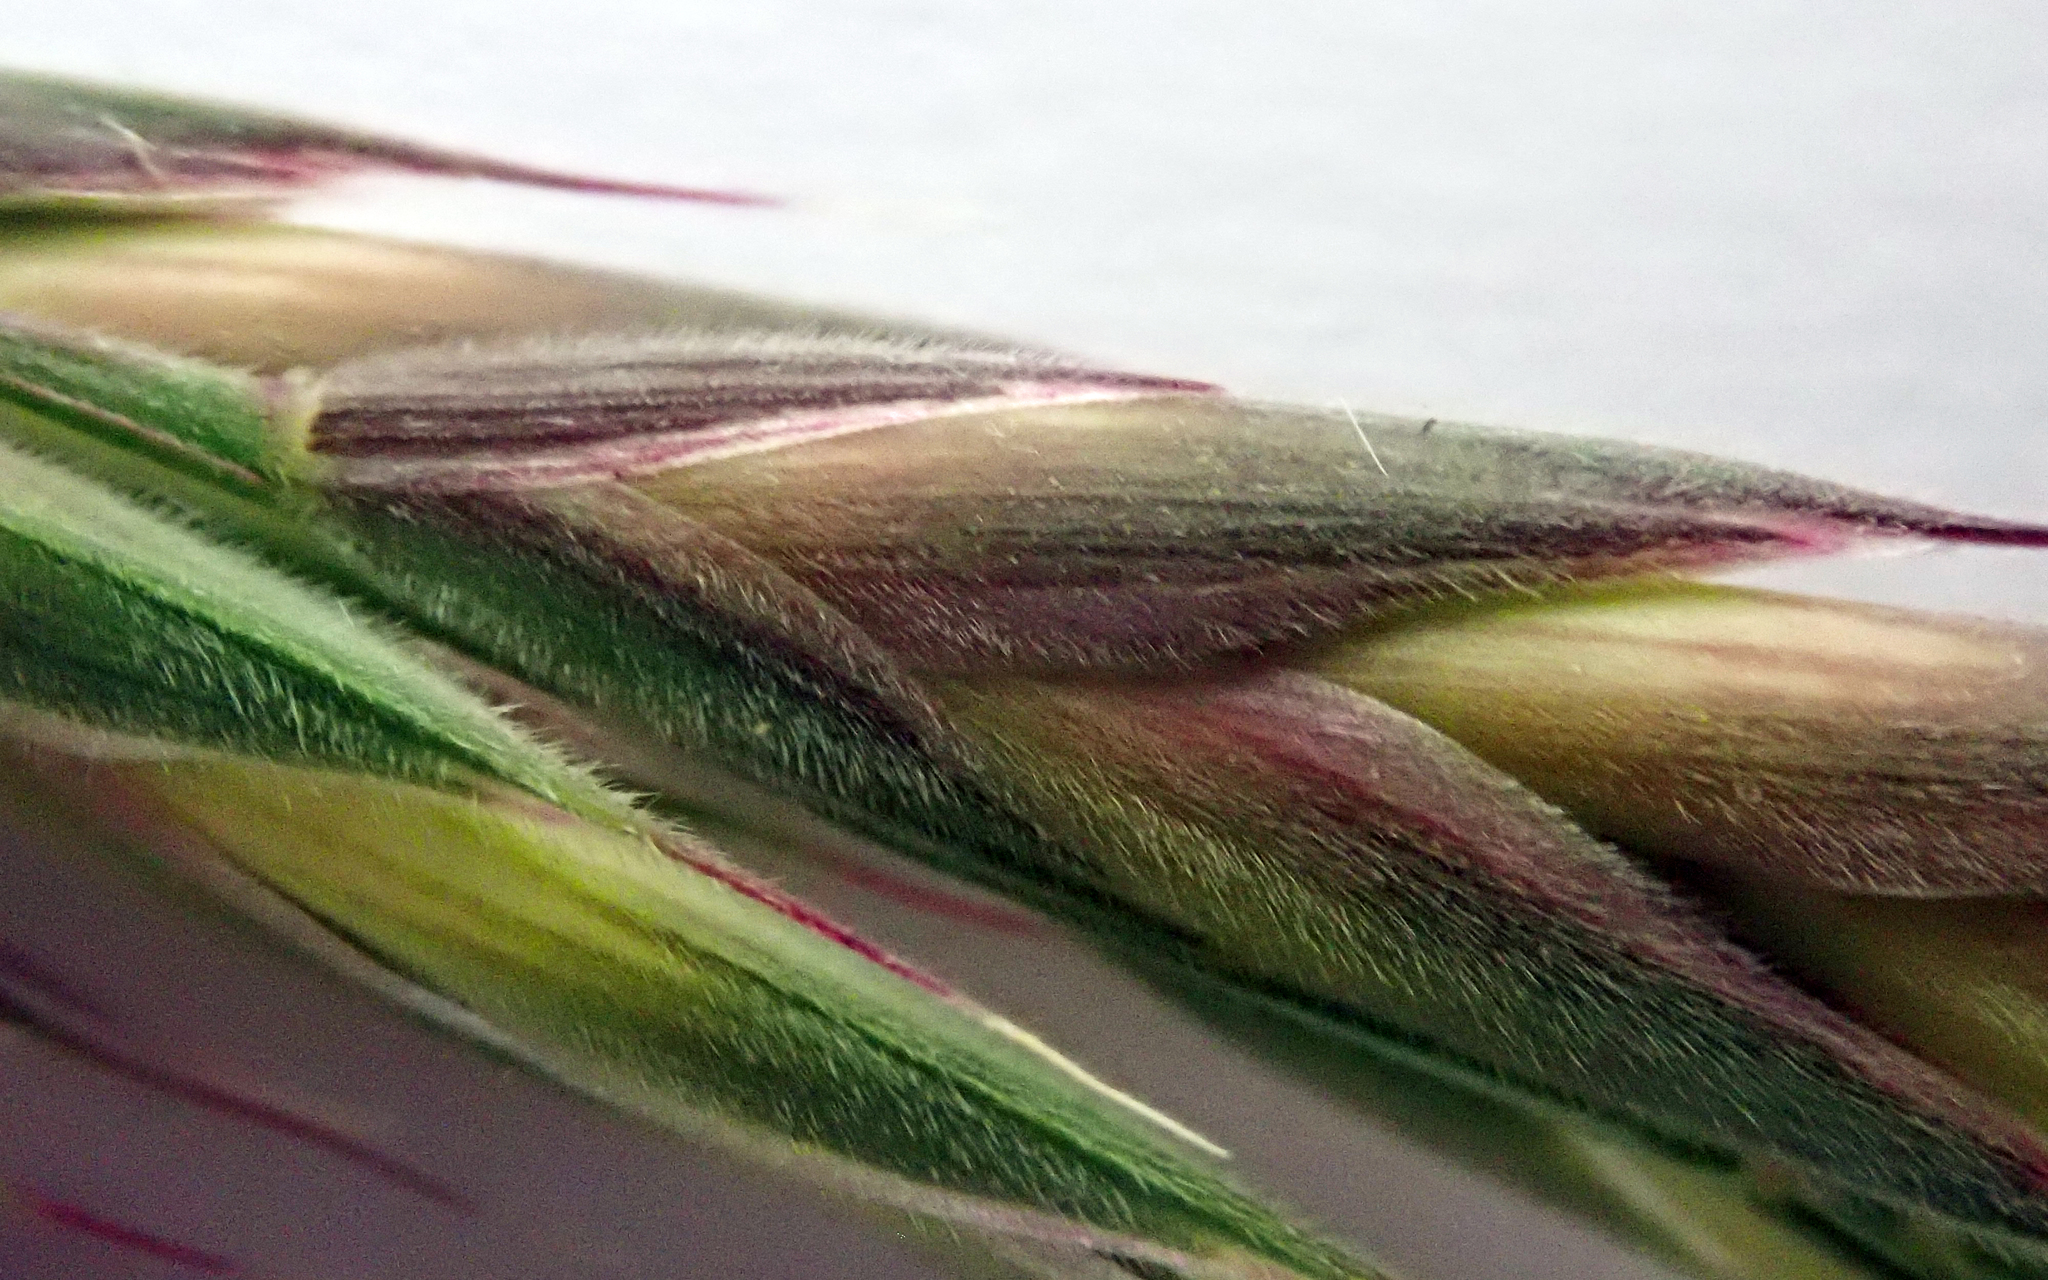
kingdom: Plantae
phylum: Tracheophyta
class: Liliopsida
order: Poales
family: Poaceae
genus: Bromus
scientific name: Bromus lithobius
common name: Chilean brome
